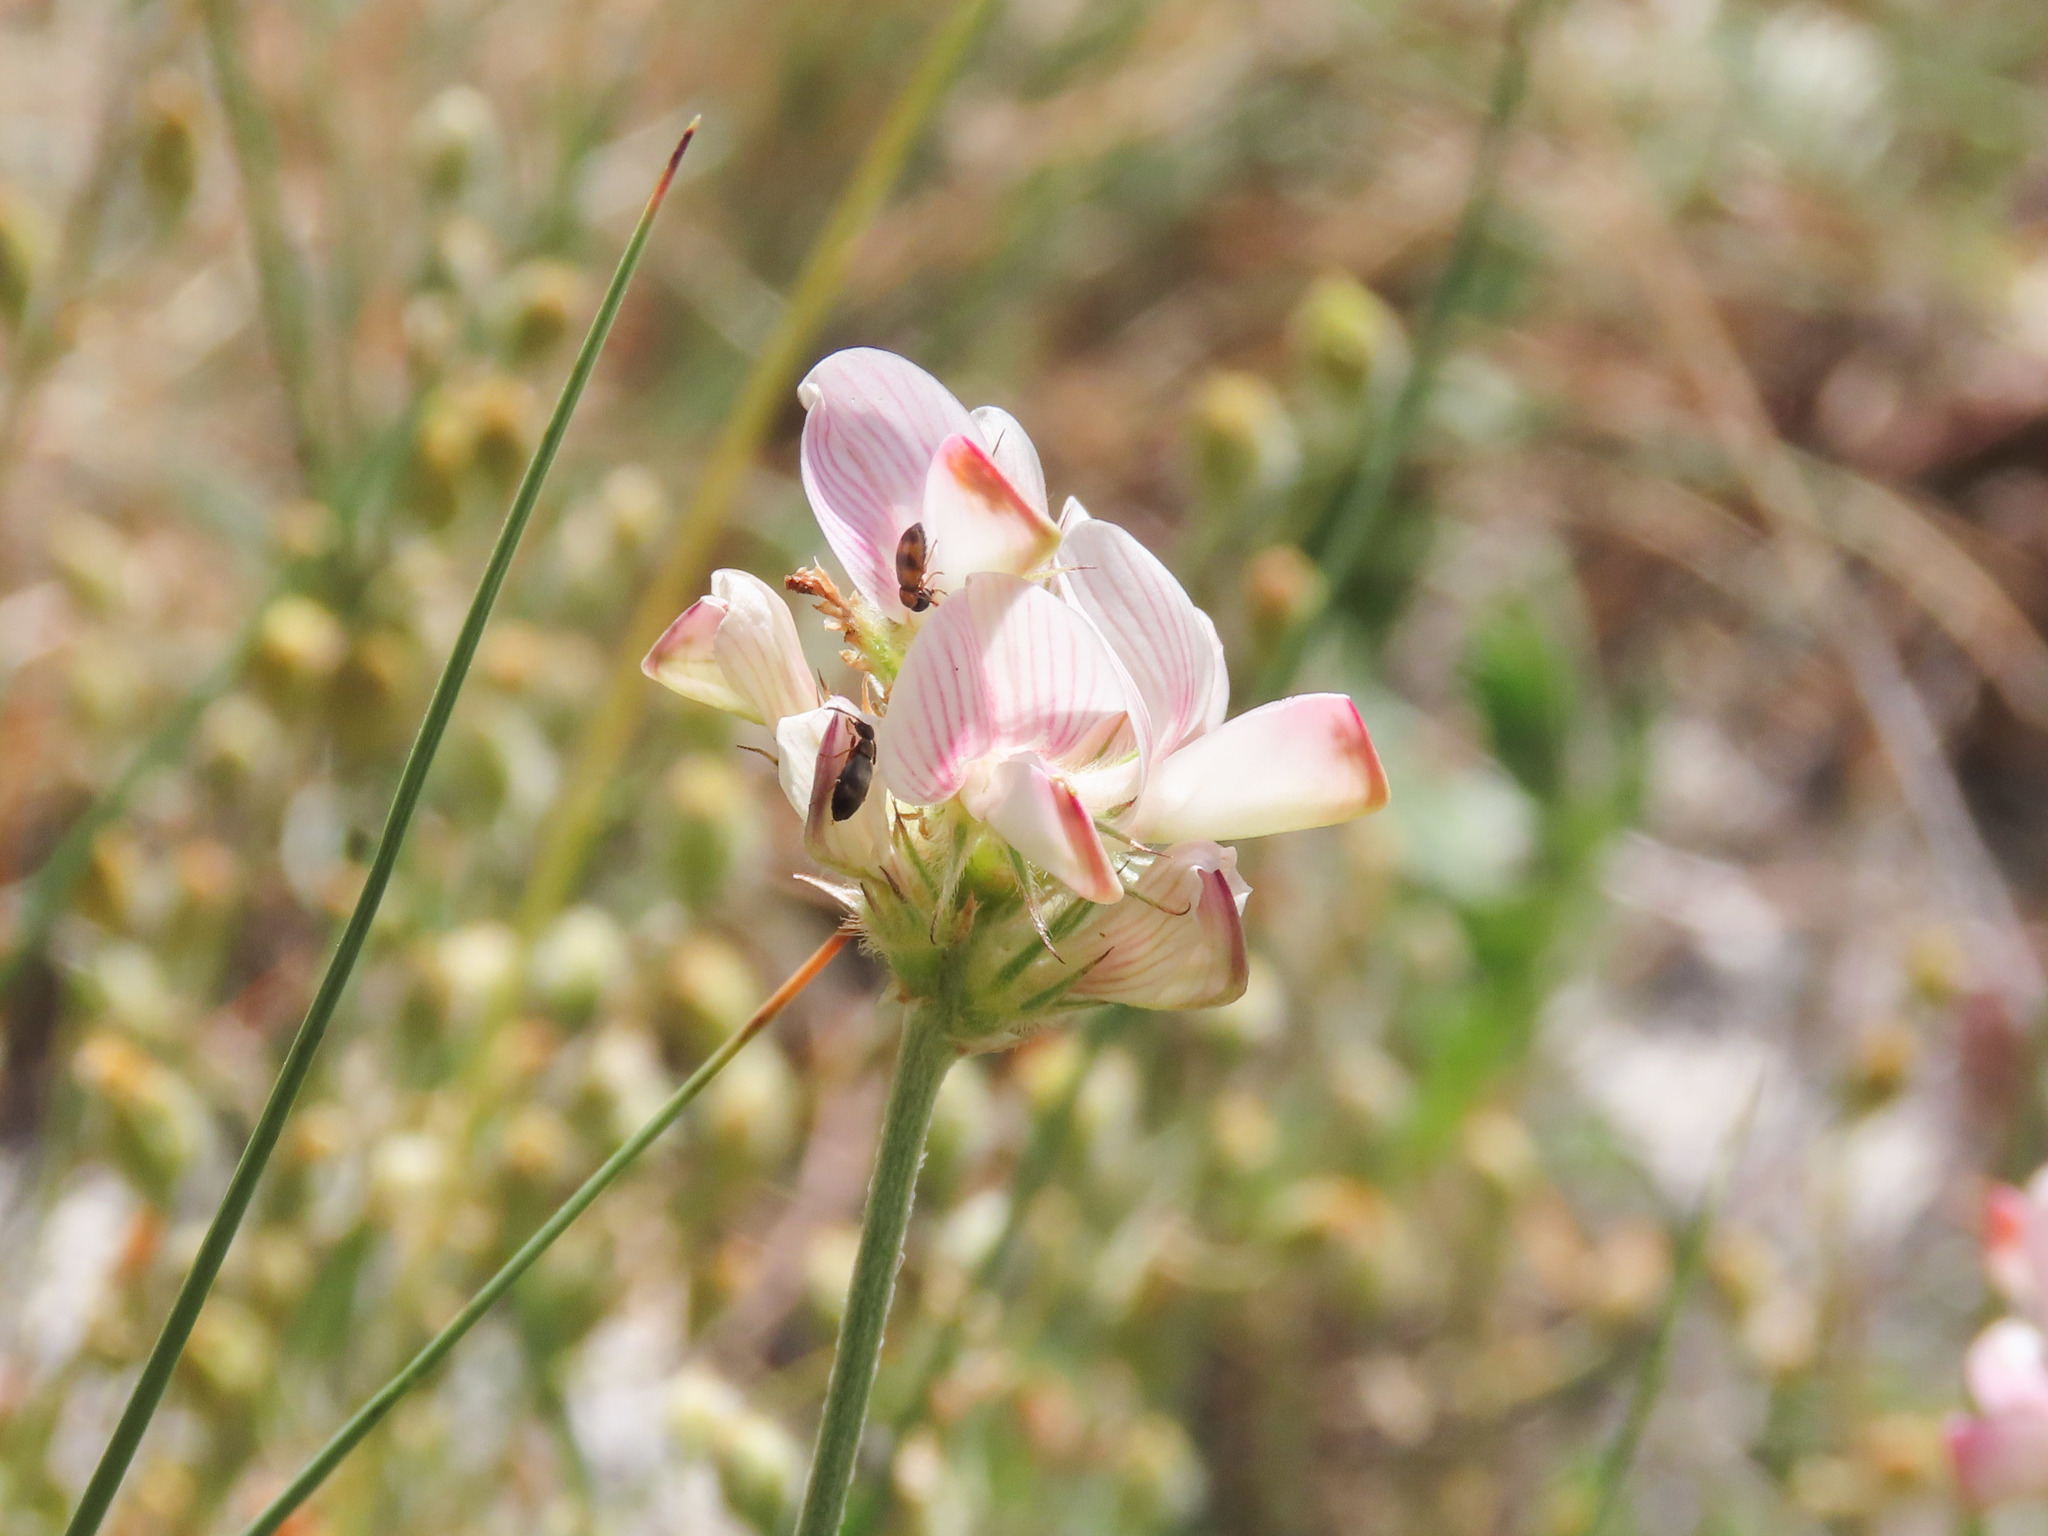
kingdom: Plantae
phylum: Tracheophyta
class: Magnoliopsida
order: Fabales
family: Fabaceae
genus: Onobrychis
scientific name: Onobrychis alba
